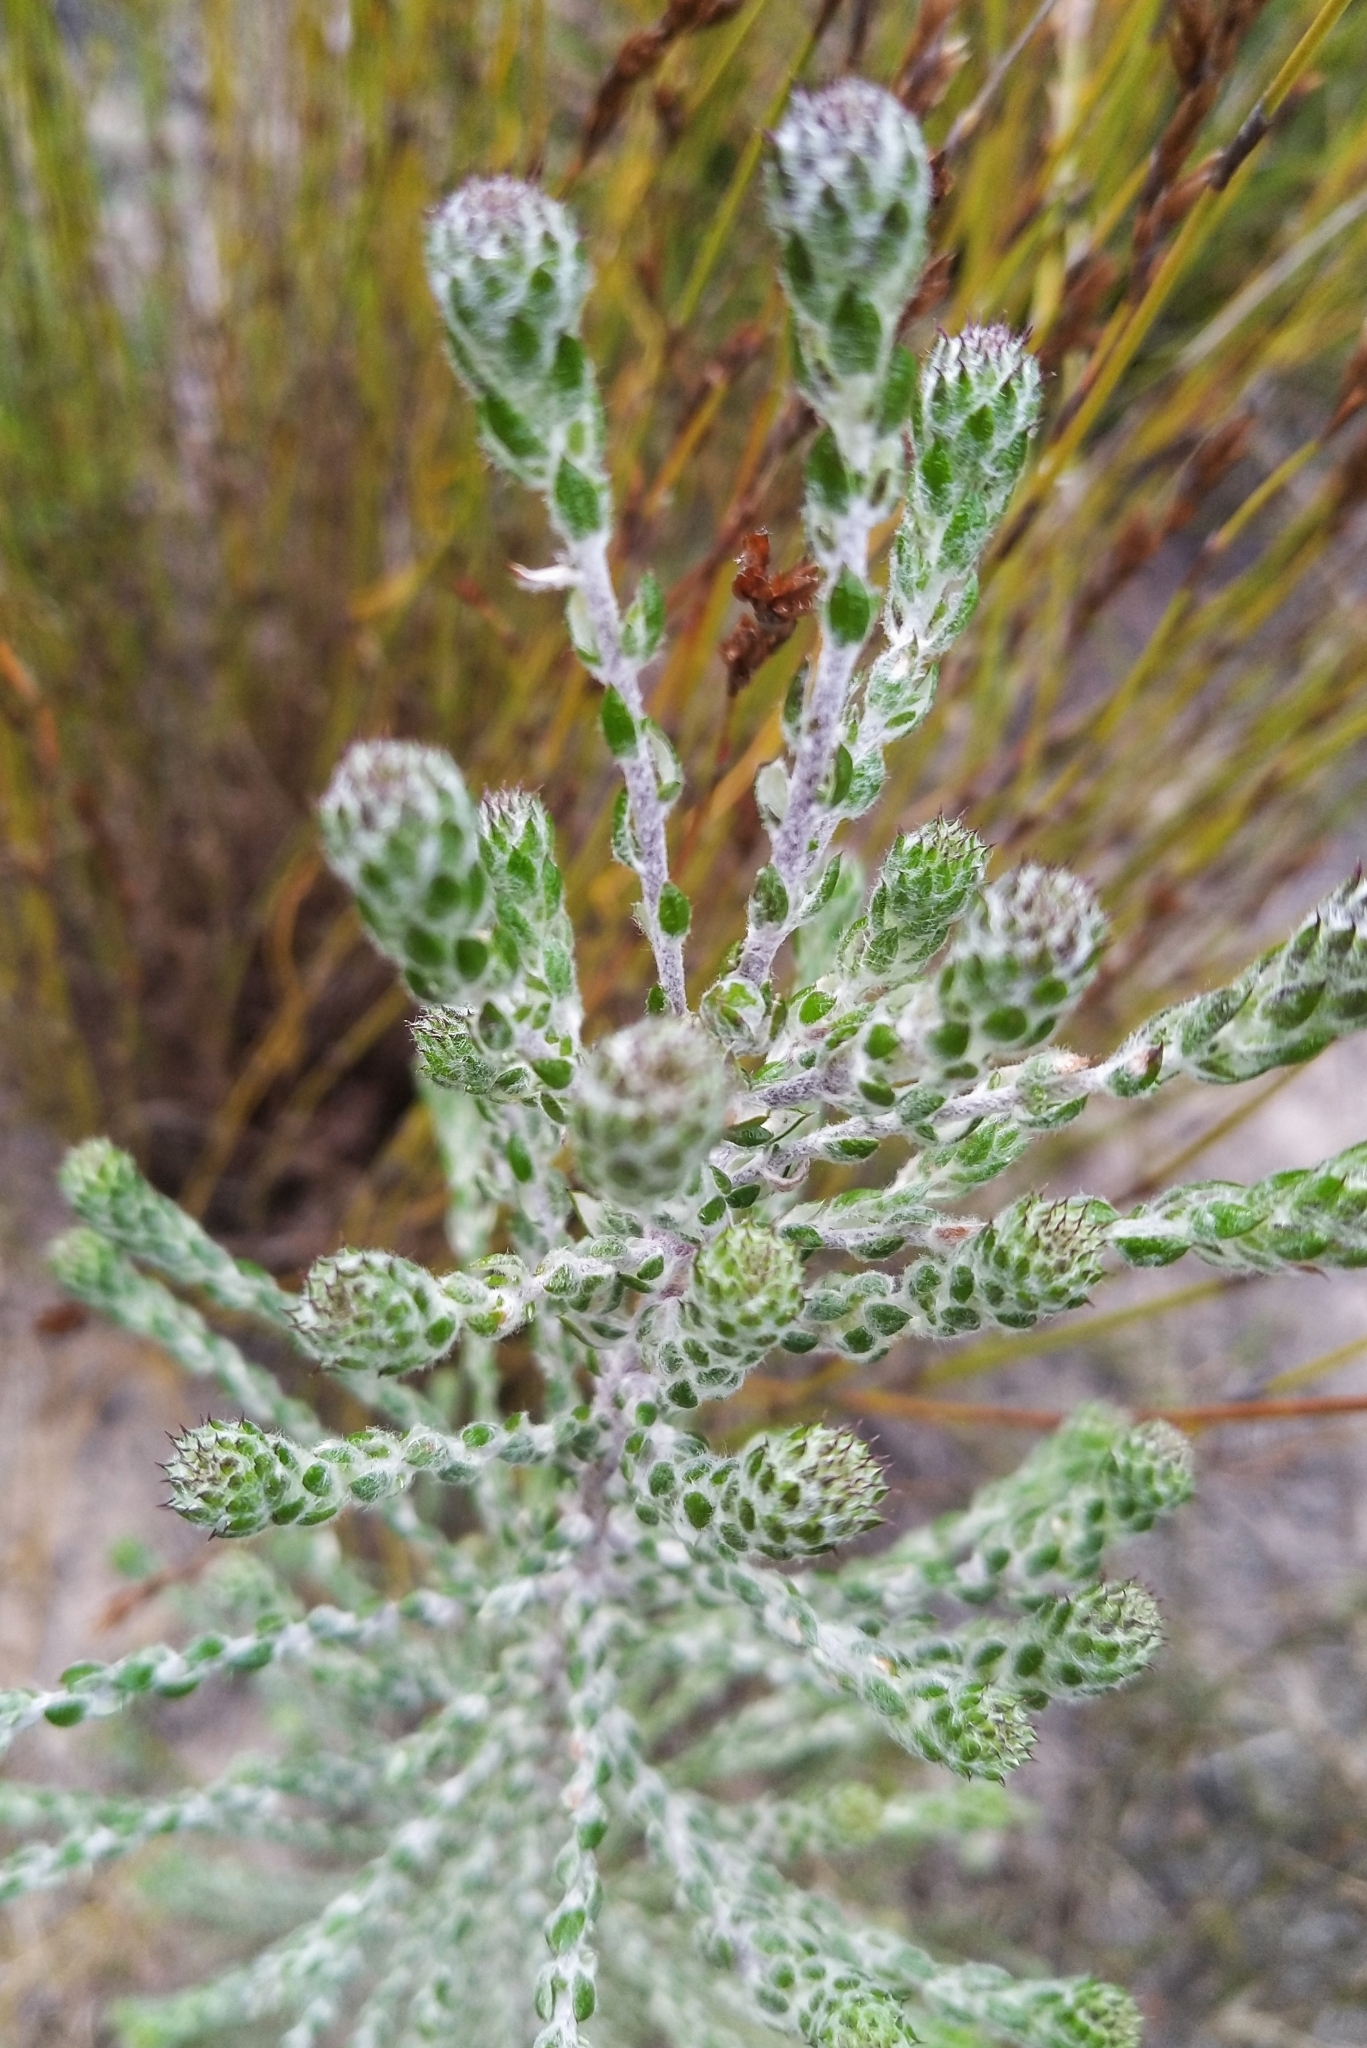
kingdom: Plantae
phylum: Tracheophyta
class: Magnoliopsida
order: Asterales
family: Asteraceae
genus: Dicerothamnus
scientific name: Dicerothamnus rhinocerotis
